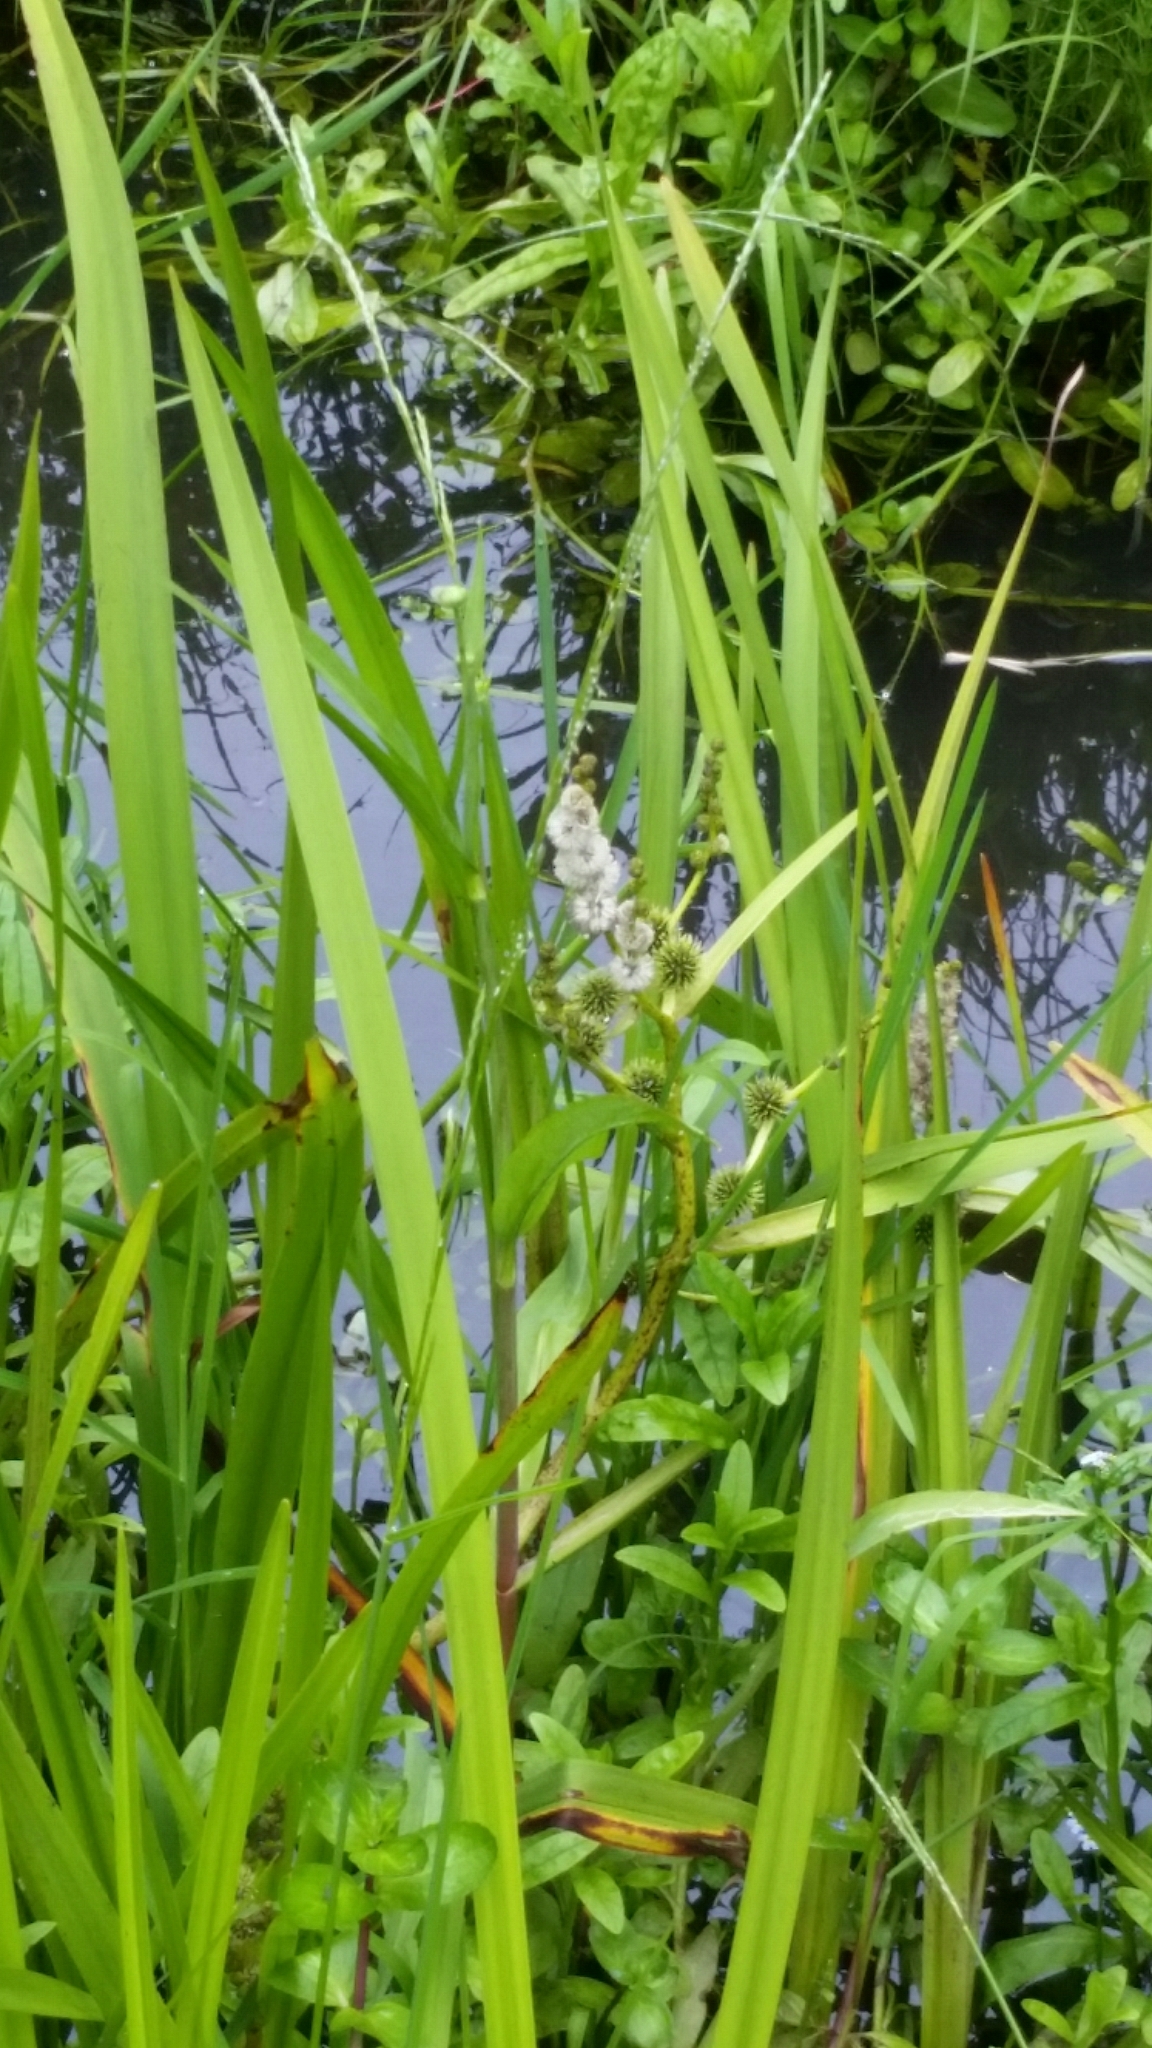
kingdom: Plantae
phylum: Tracheophyta
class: Liliopsida
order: Poales
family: Typhaceae
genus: Sparganium
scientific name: Sparganium erectum
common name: Branched bur-reed
